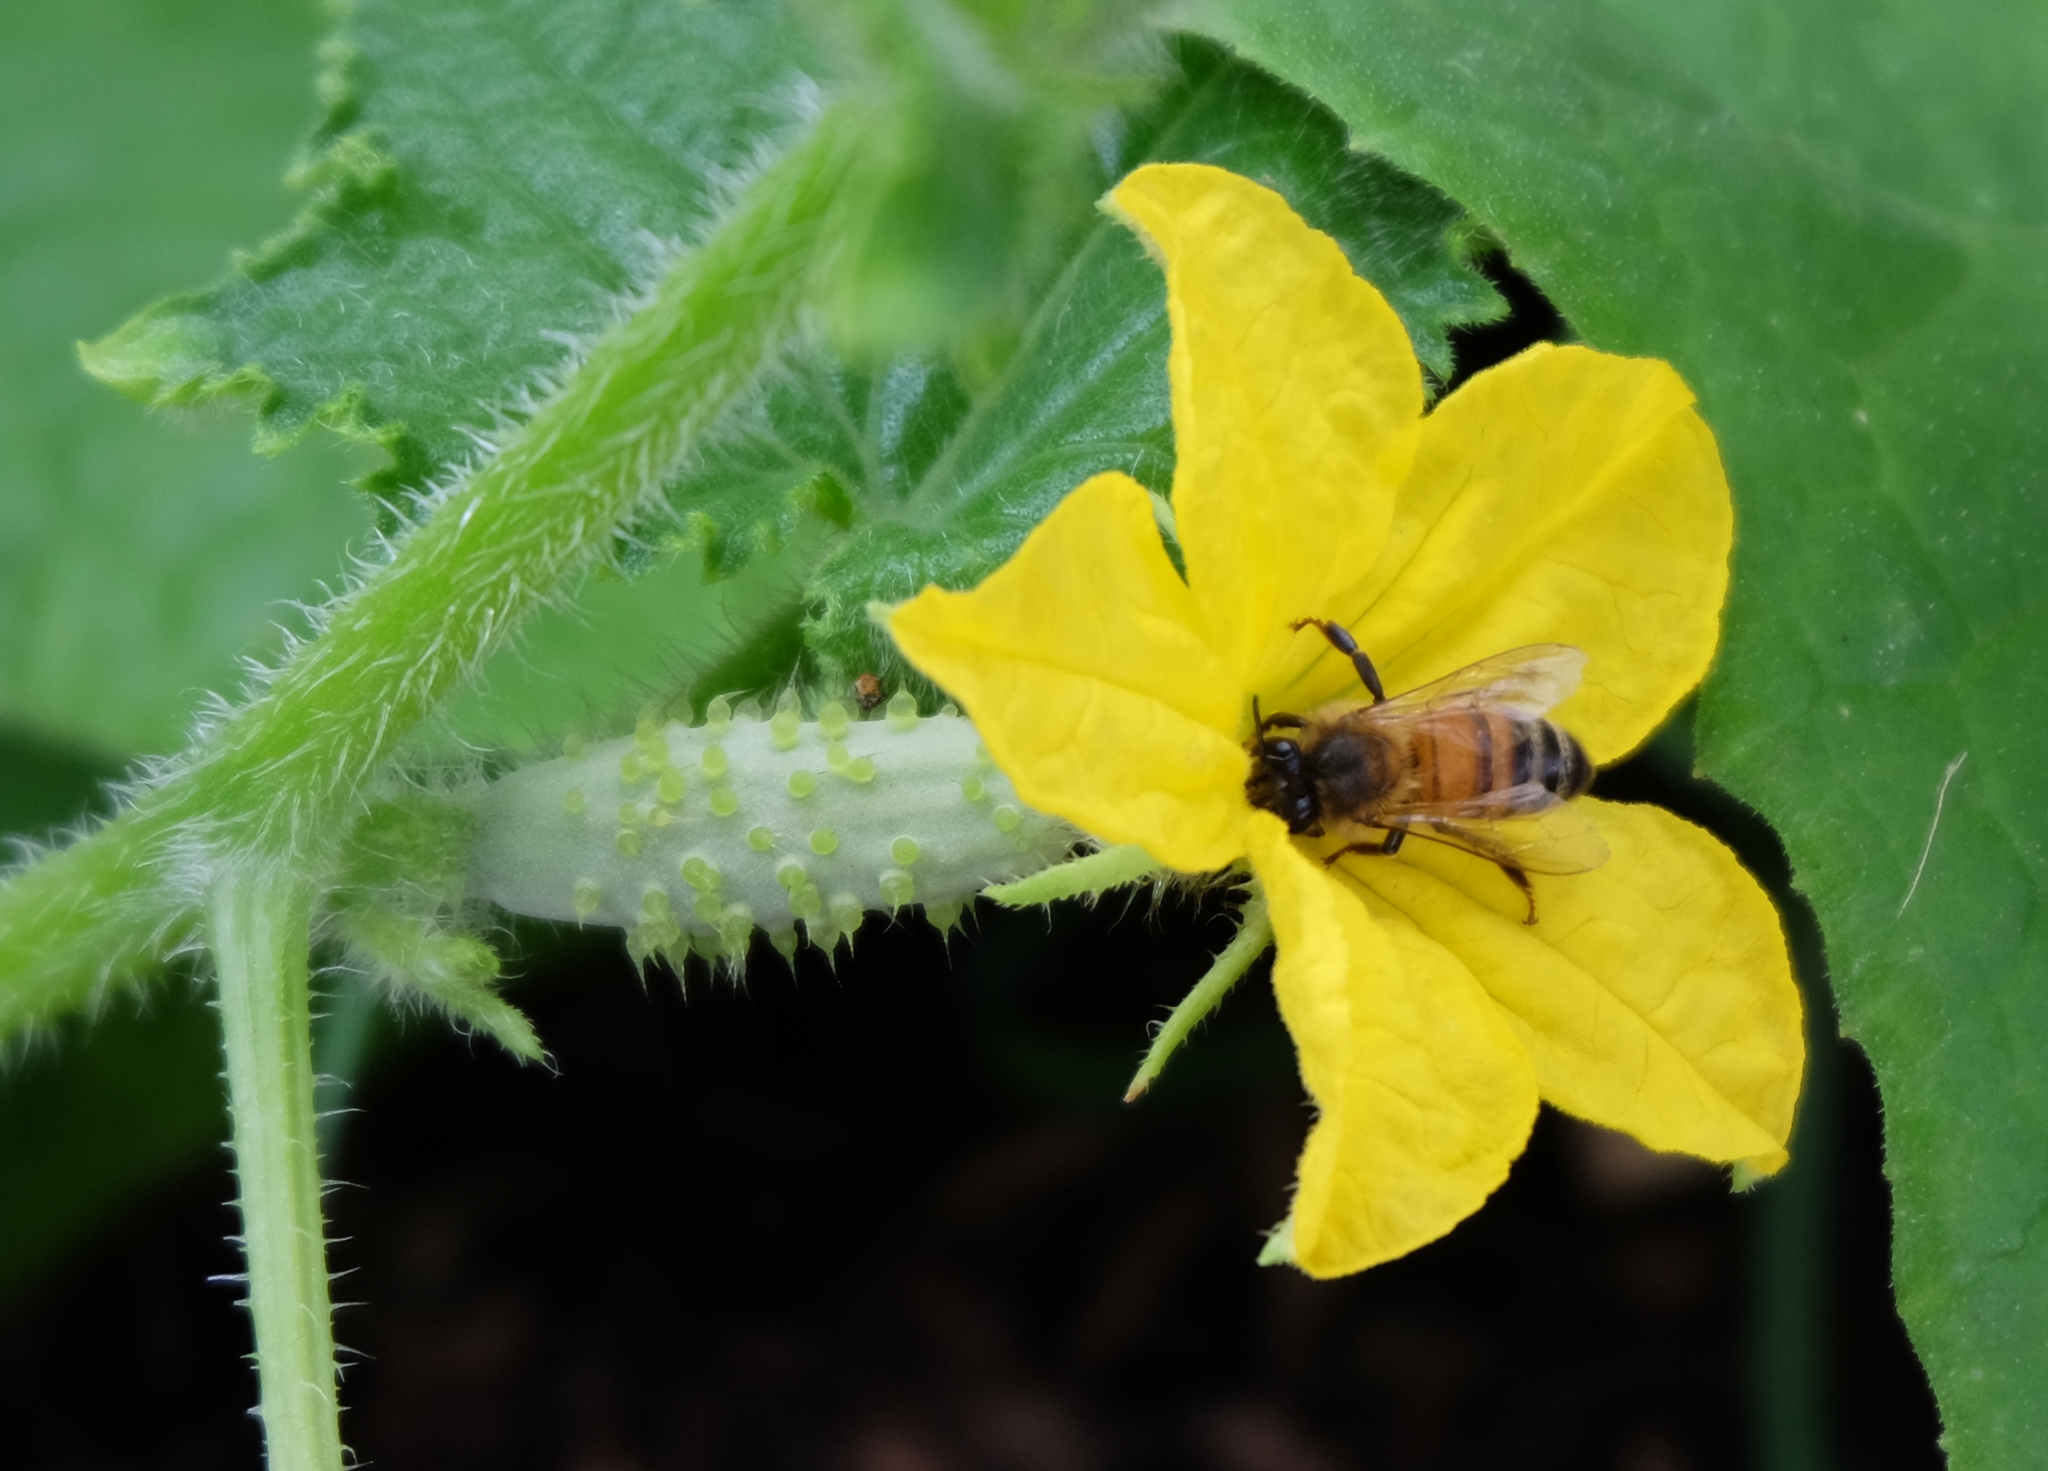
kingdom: Animalia
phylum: Arthropoda
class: Insecta
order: Hymenoptera
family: Apidae
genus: Apis
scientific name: Apis mellifera
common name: Honey bee
